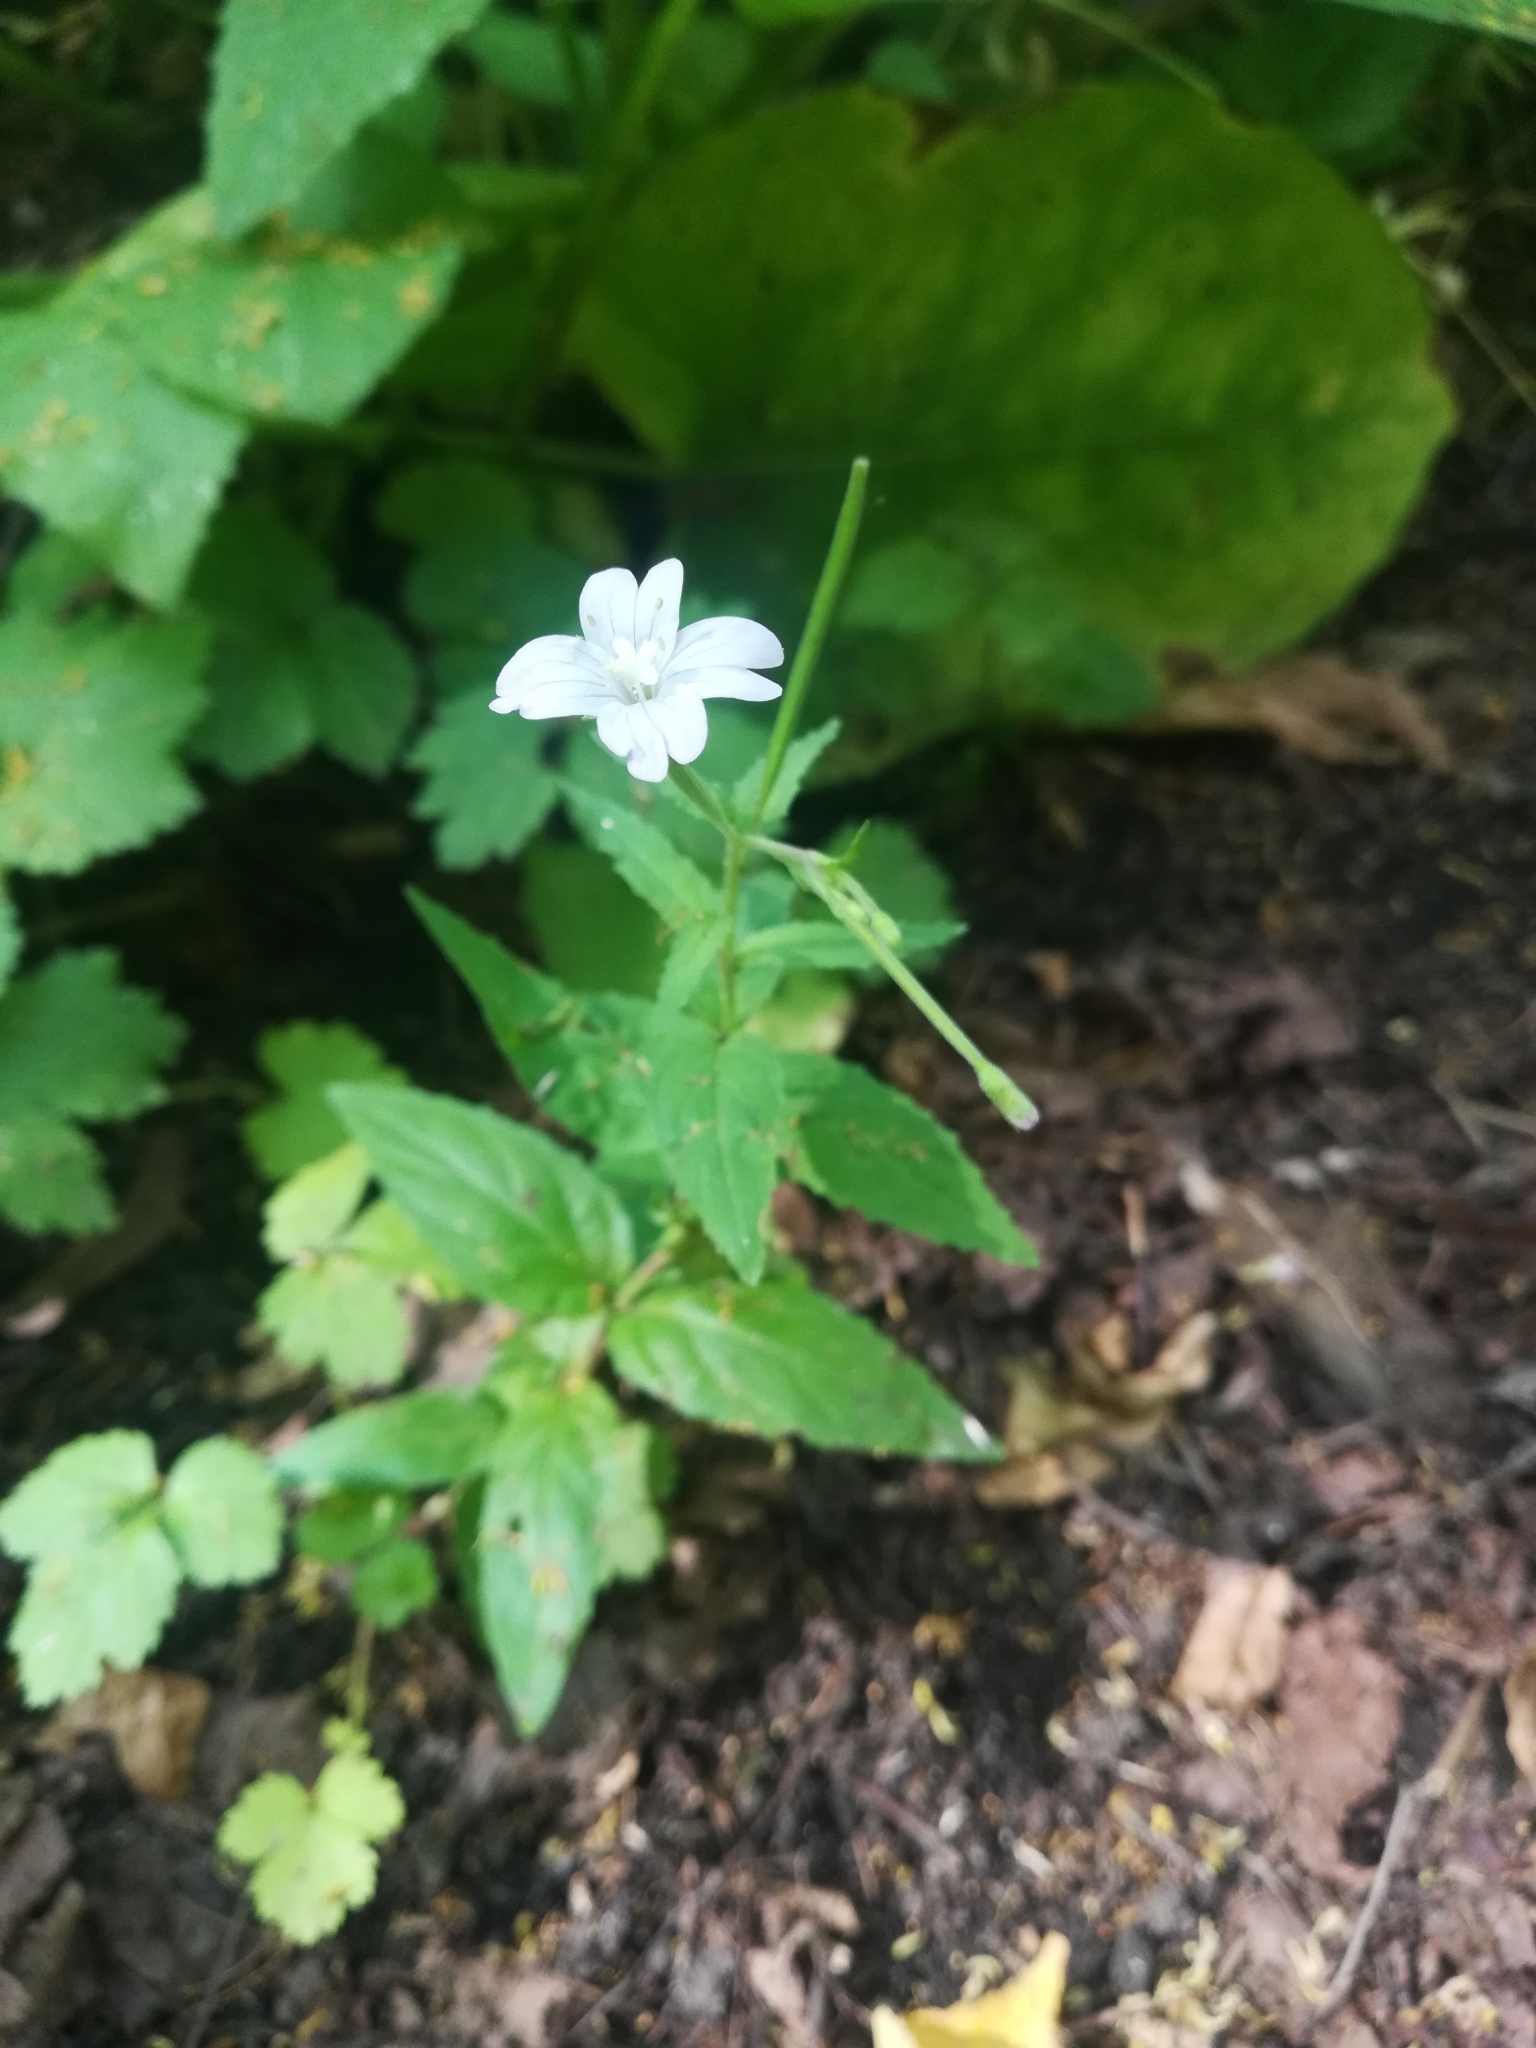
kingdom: Plantae
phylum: Tracheophyta
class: Magnoliopsida
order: Myrtales
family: Onagraceae
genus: Epilobium
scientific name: Epilobium montanum
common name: Broad-leaved willowherb
